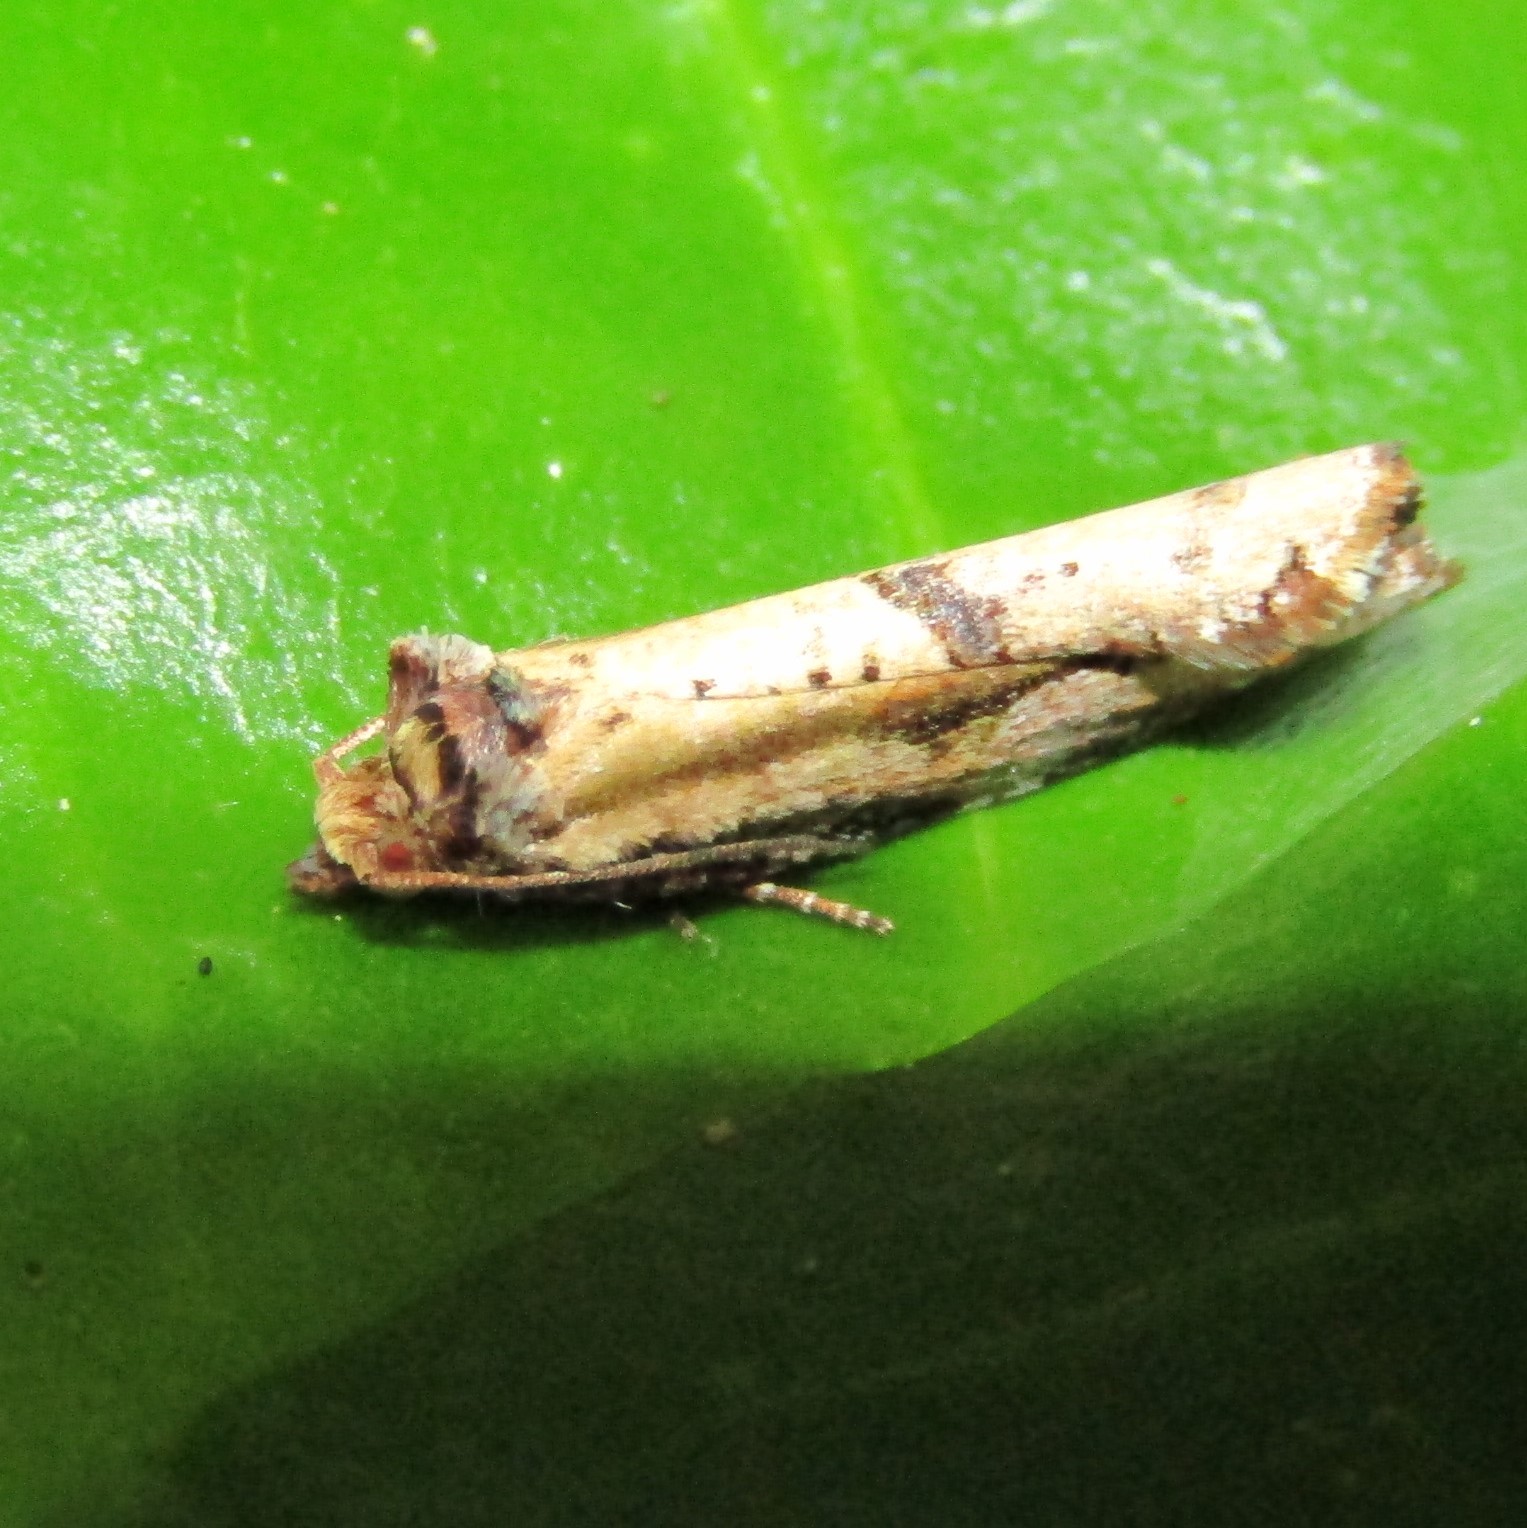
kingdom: Animalia
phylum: Arthropoda
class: Insecta
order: Lepidoptera
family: Tortricidae
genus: Epalxiphora
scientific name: Epalxiphora axenana
